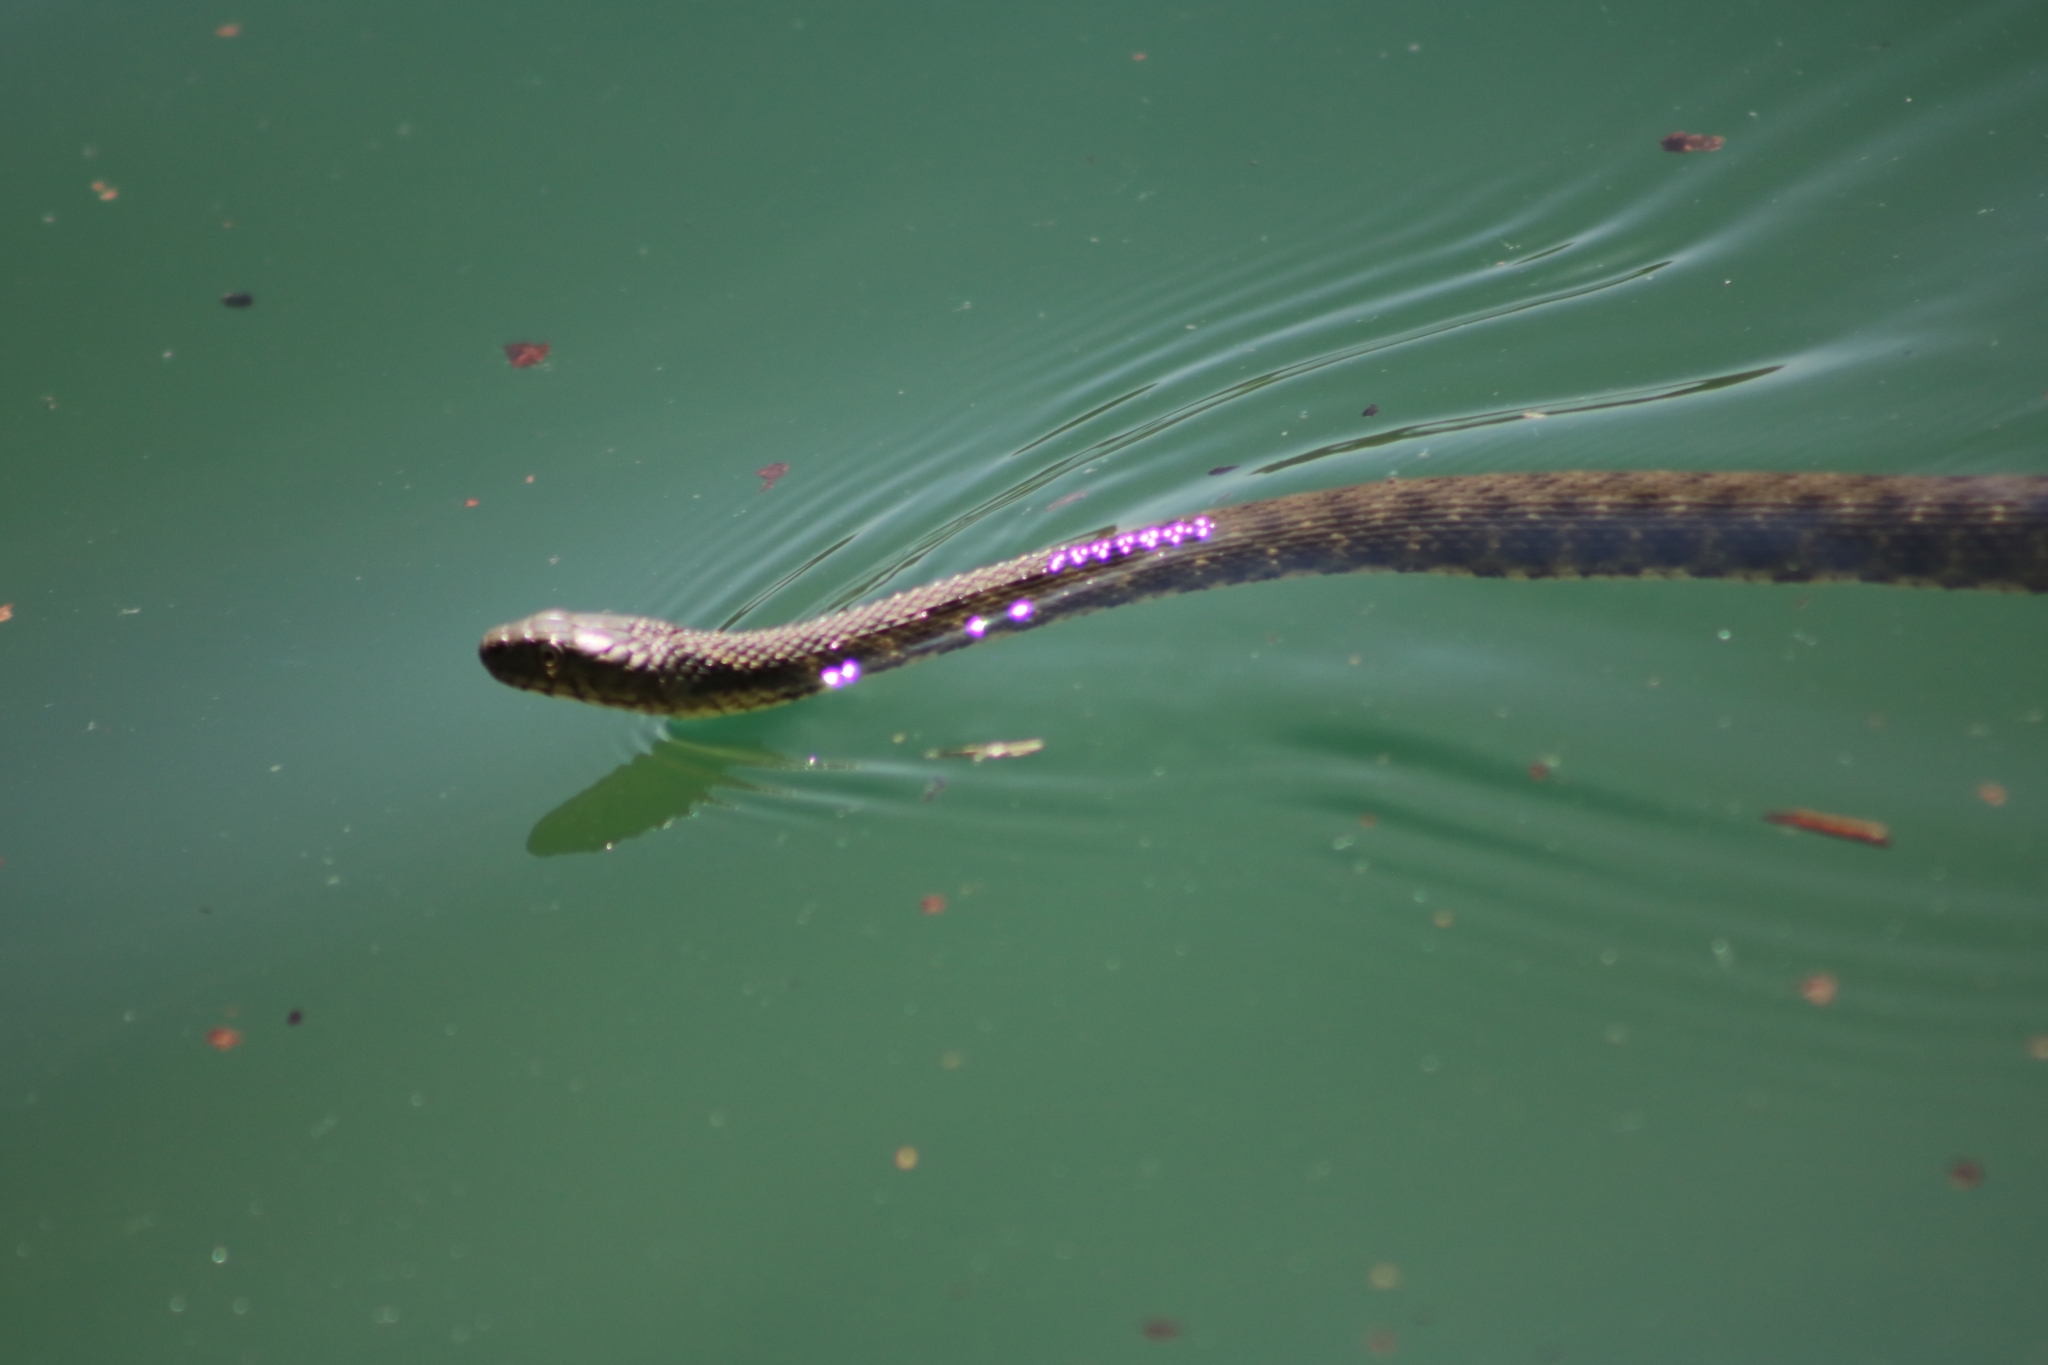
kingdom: Animalia
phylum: Chordata
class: Squamata
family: Colubridae
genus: Natrix
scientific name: Natrix tessellata
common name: Dice snake
